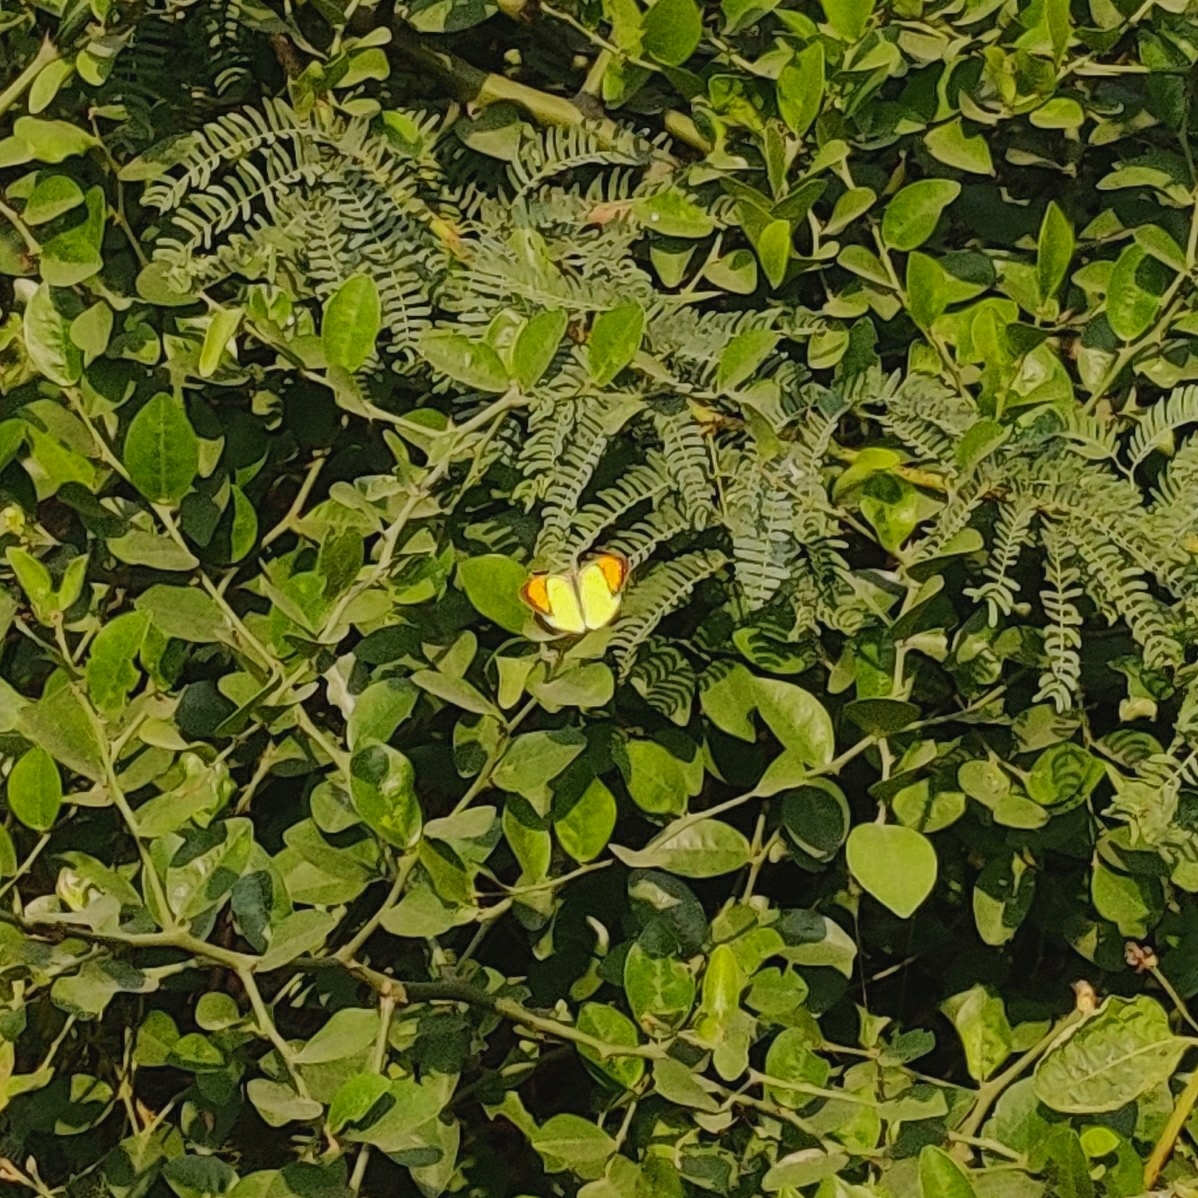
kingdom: Animalia
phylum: Arthropoda
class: Insecta
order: Lepidoptera
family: Pieridae
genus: Ixias
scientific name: Ixias pyrene
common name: Yellow orange tip
